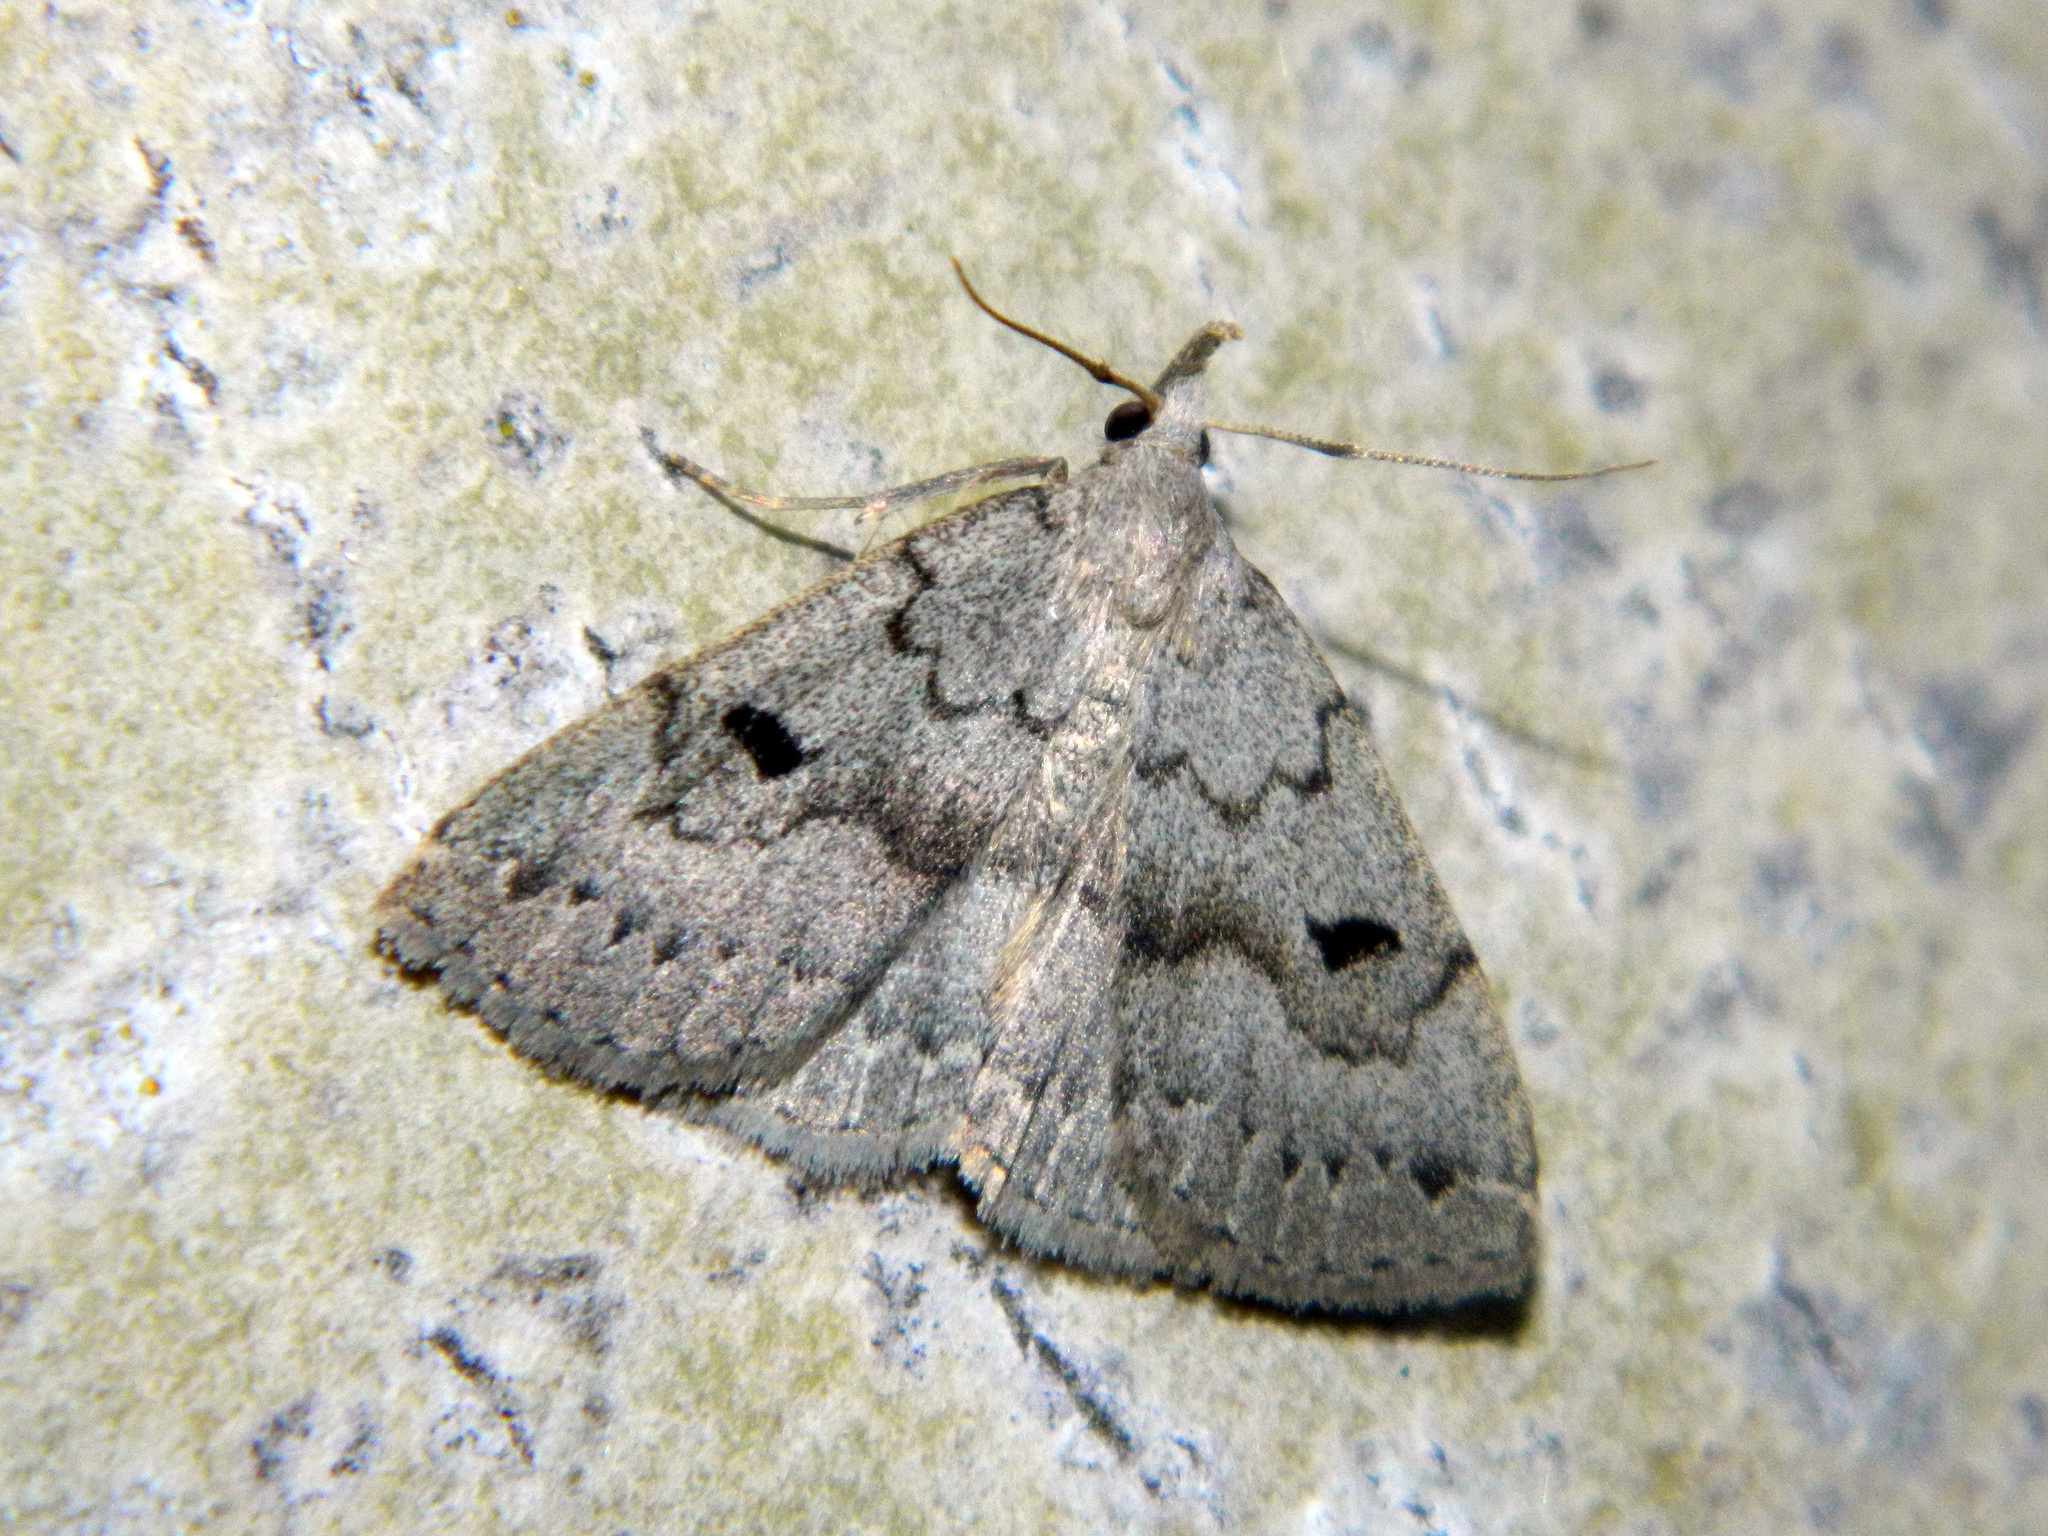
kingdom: Animalia
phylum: Arthropoda
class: Insecta
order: Lepidoptera
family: Erebidae
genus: Macrochilo
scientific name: Macrochilo morbidalis
